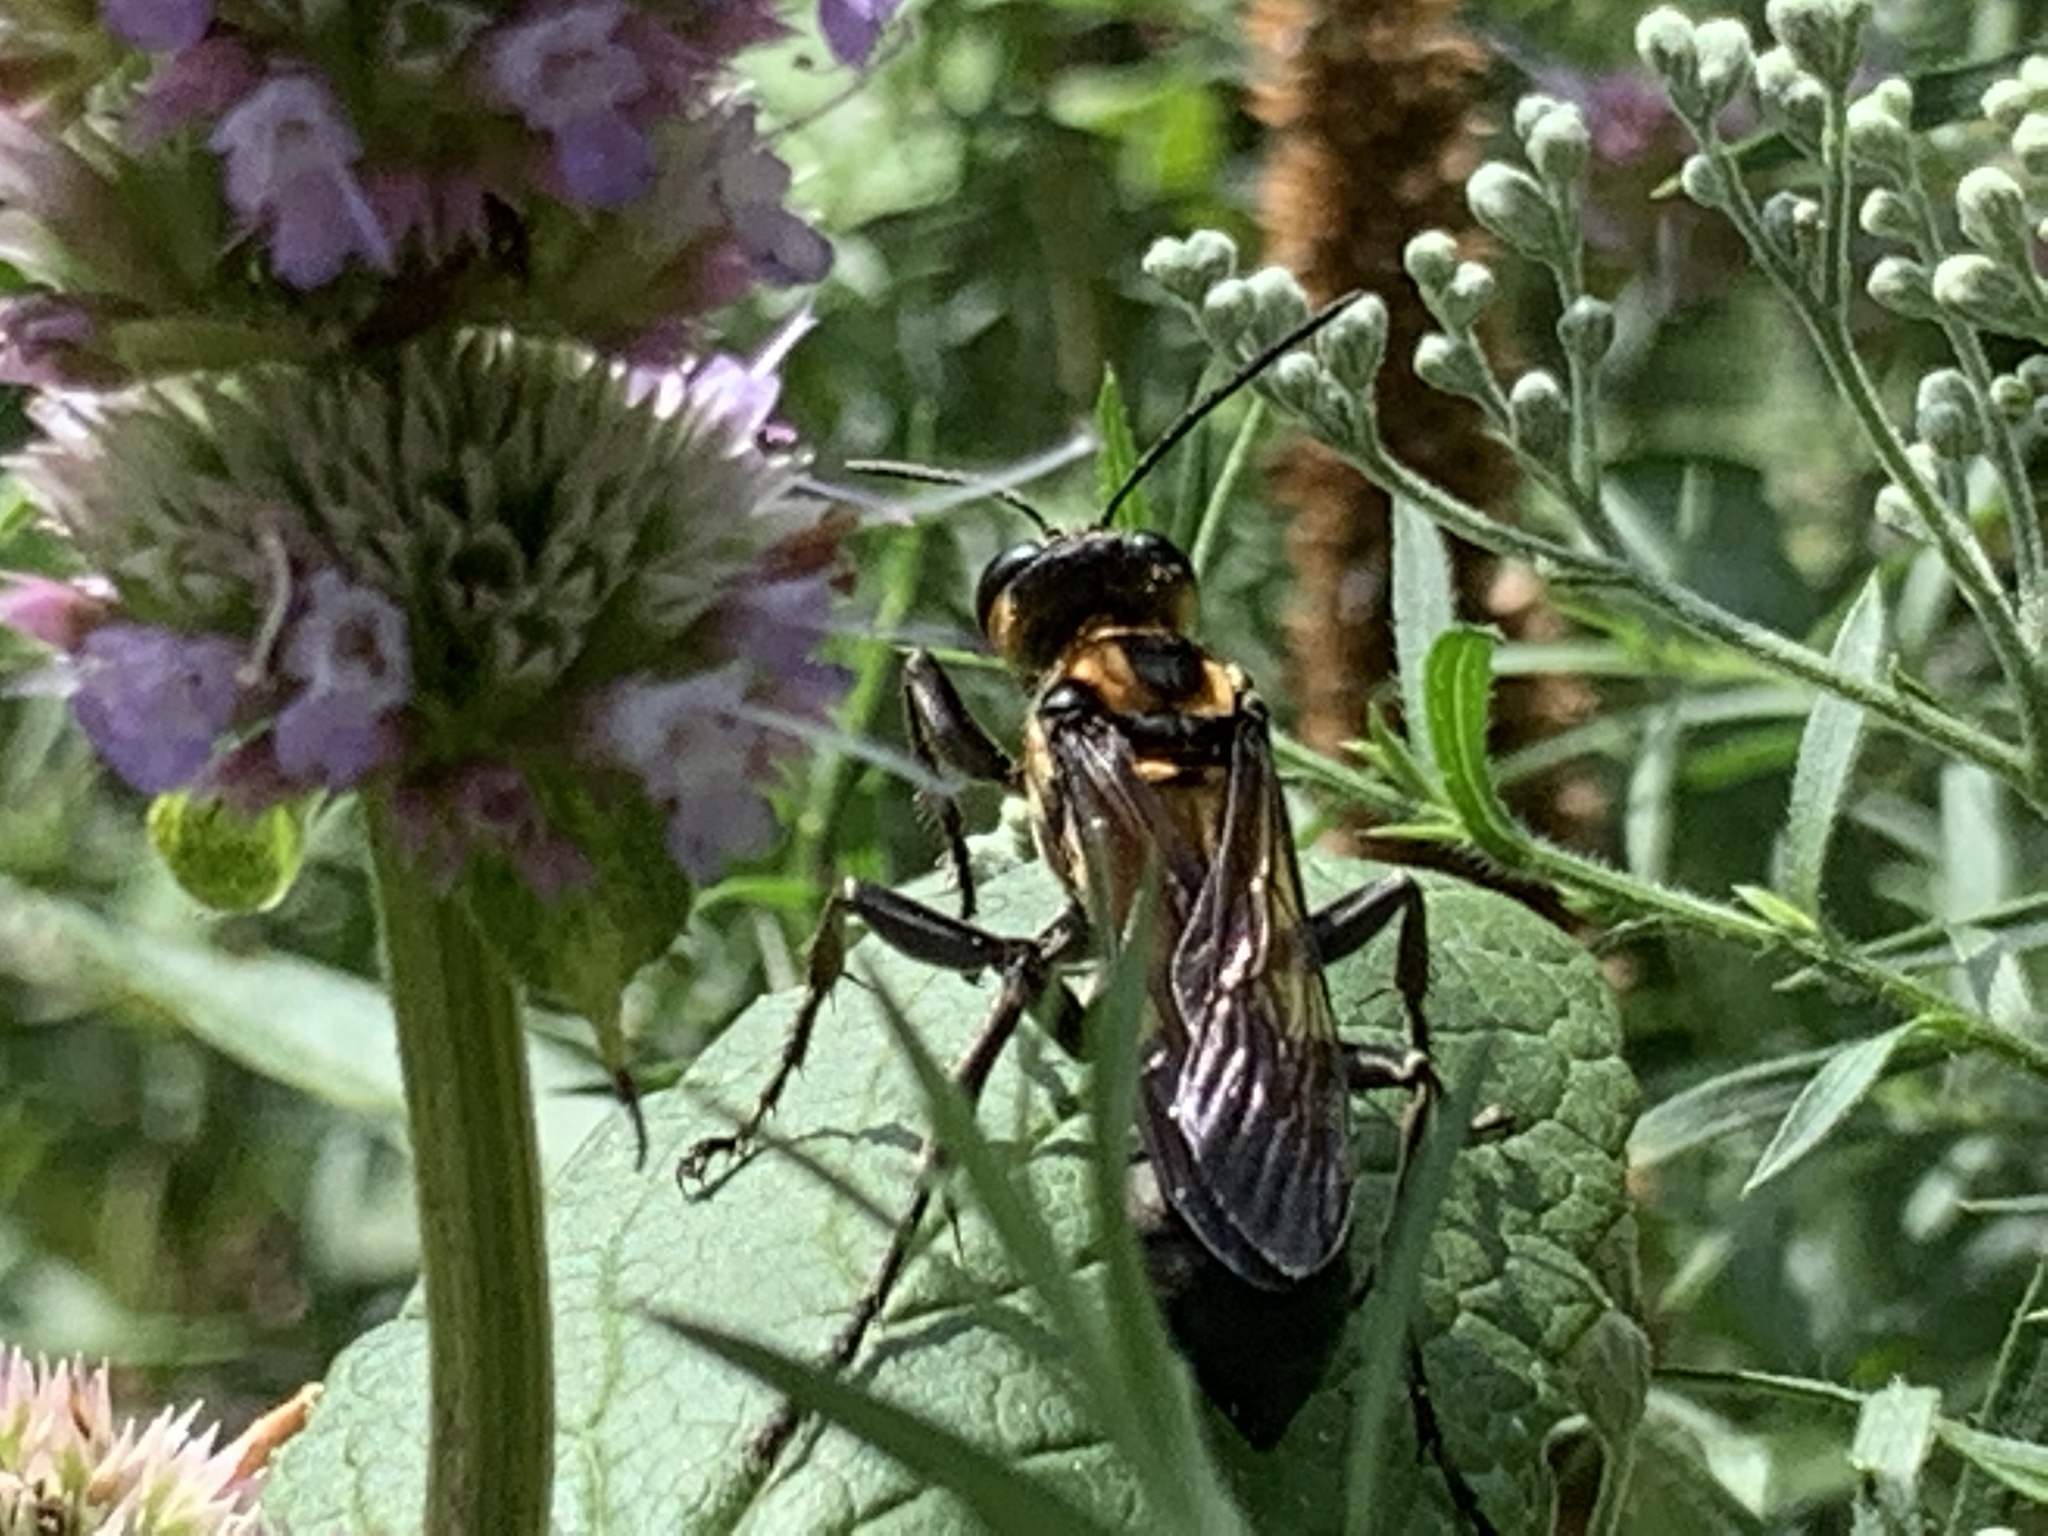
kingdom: Animalia
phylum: Arthropoda
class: Insecta
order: Hymenoptera
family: Sphecidae
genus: Sphex
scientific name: Sphex habenus
